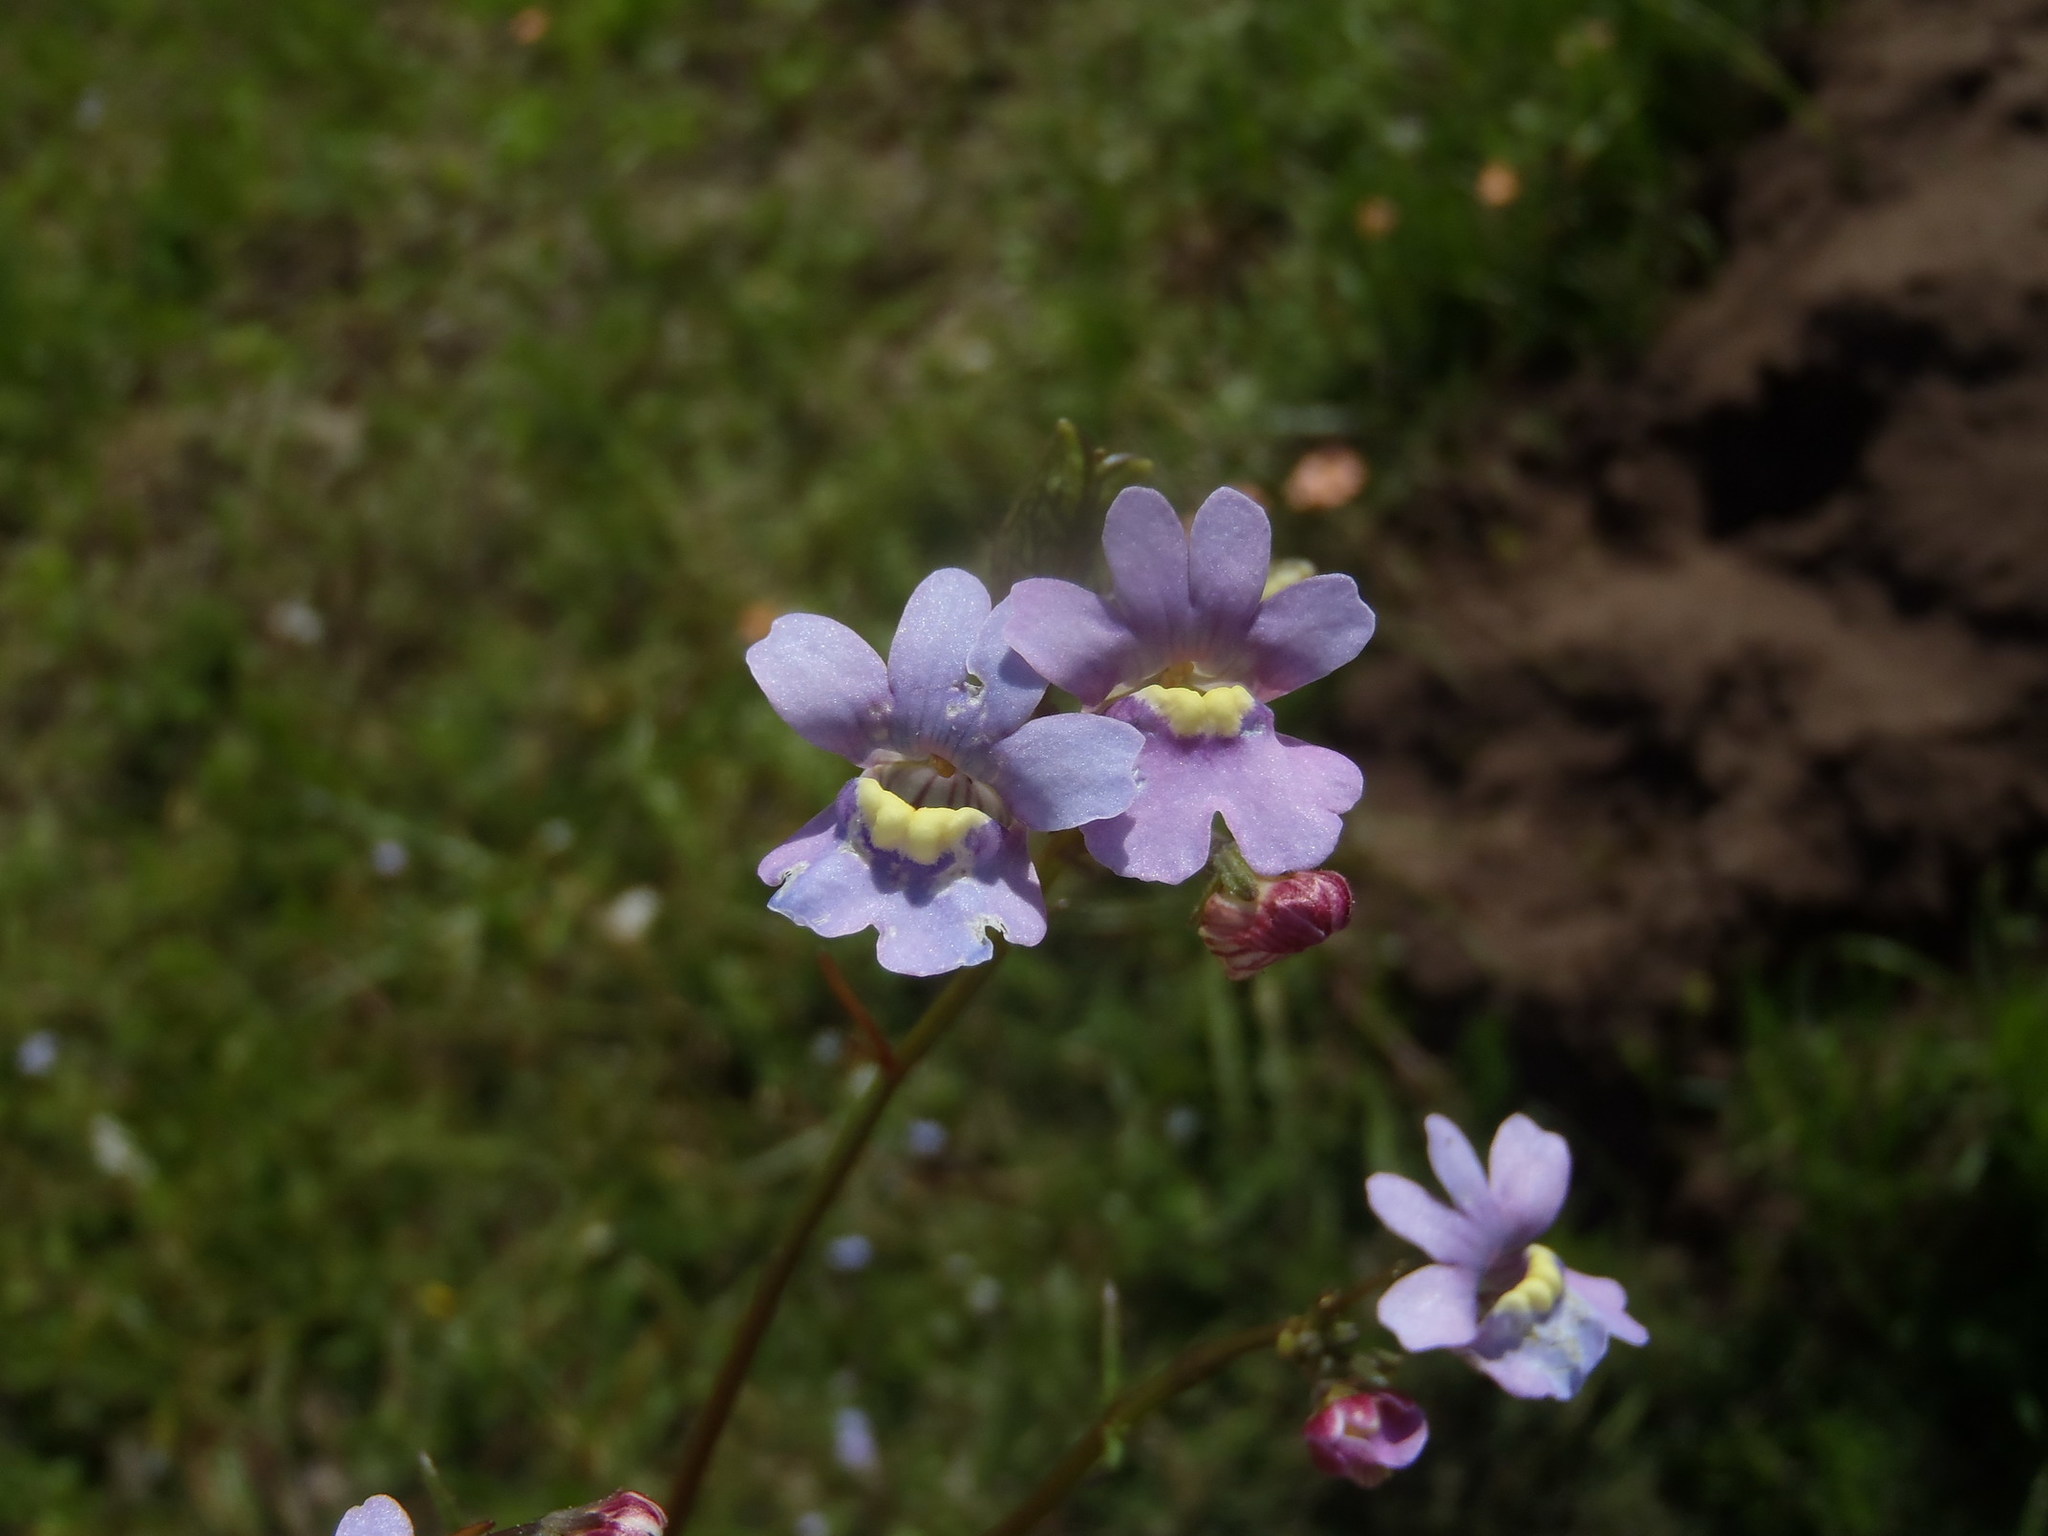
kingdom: Plantae
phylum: Tracheophyta
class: Magnoliopsida
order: Lamiales
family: Scrophulariaceae
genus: Nemesia
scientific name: Nemesia affinis
